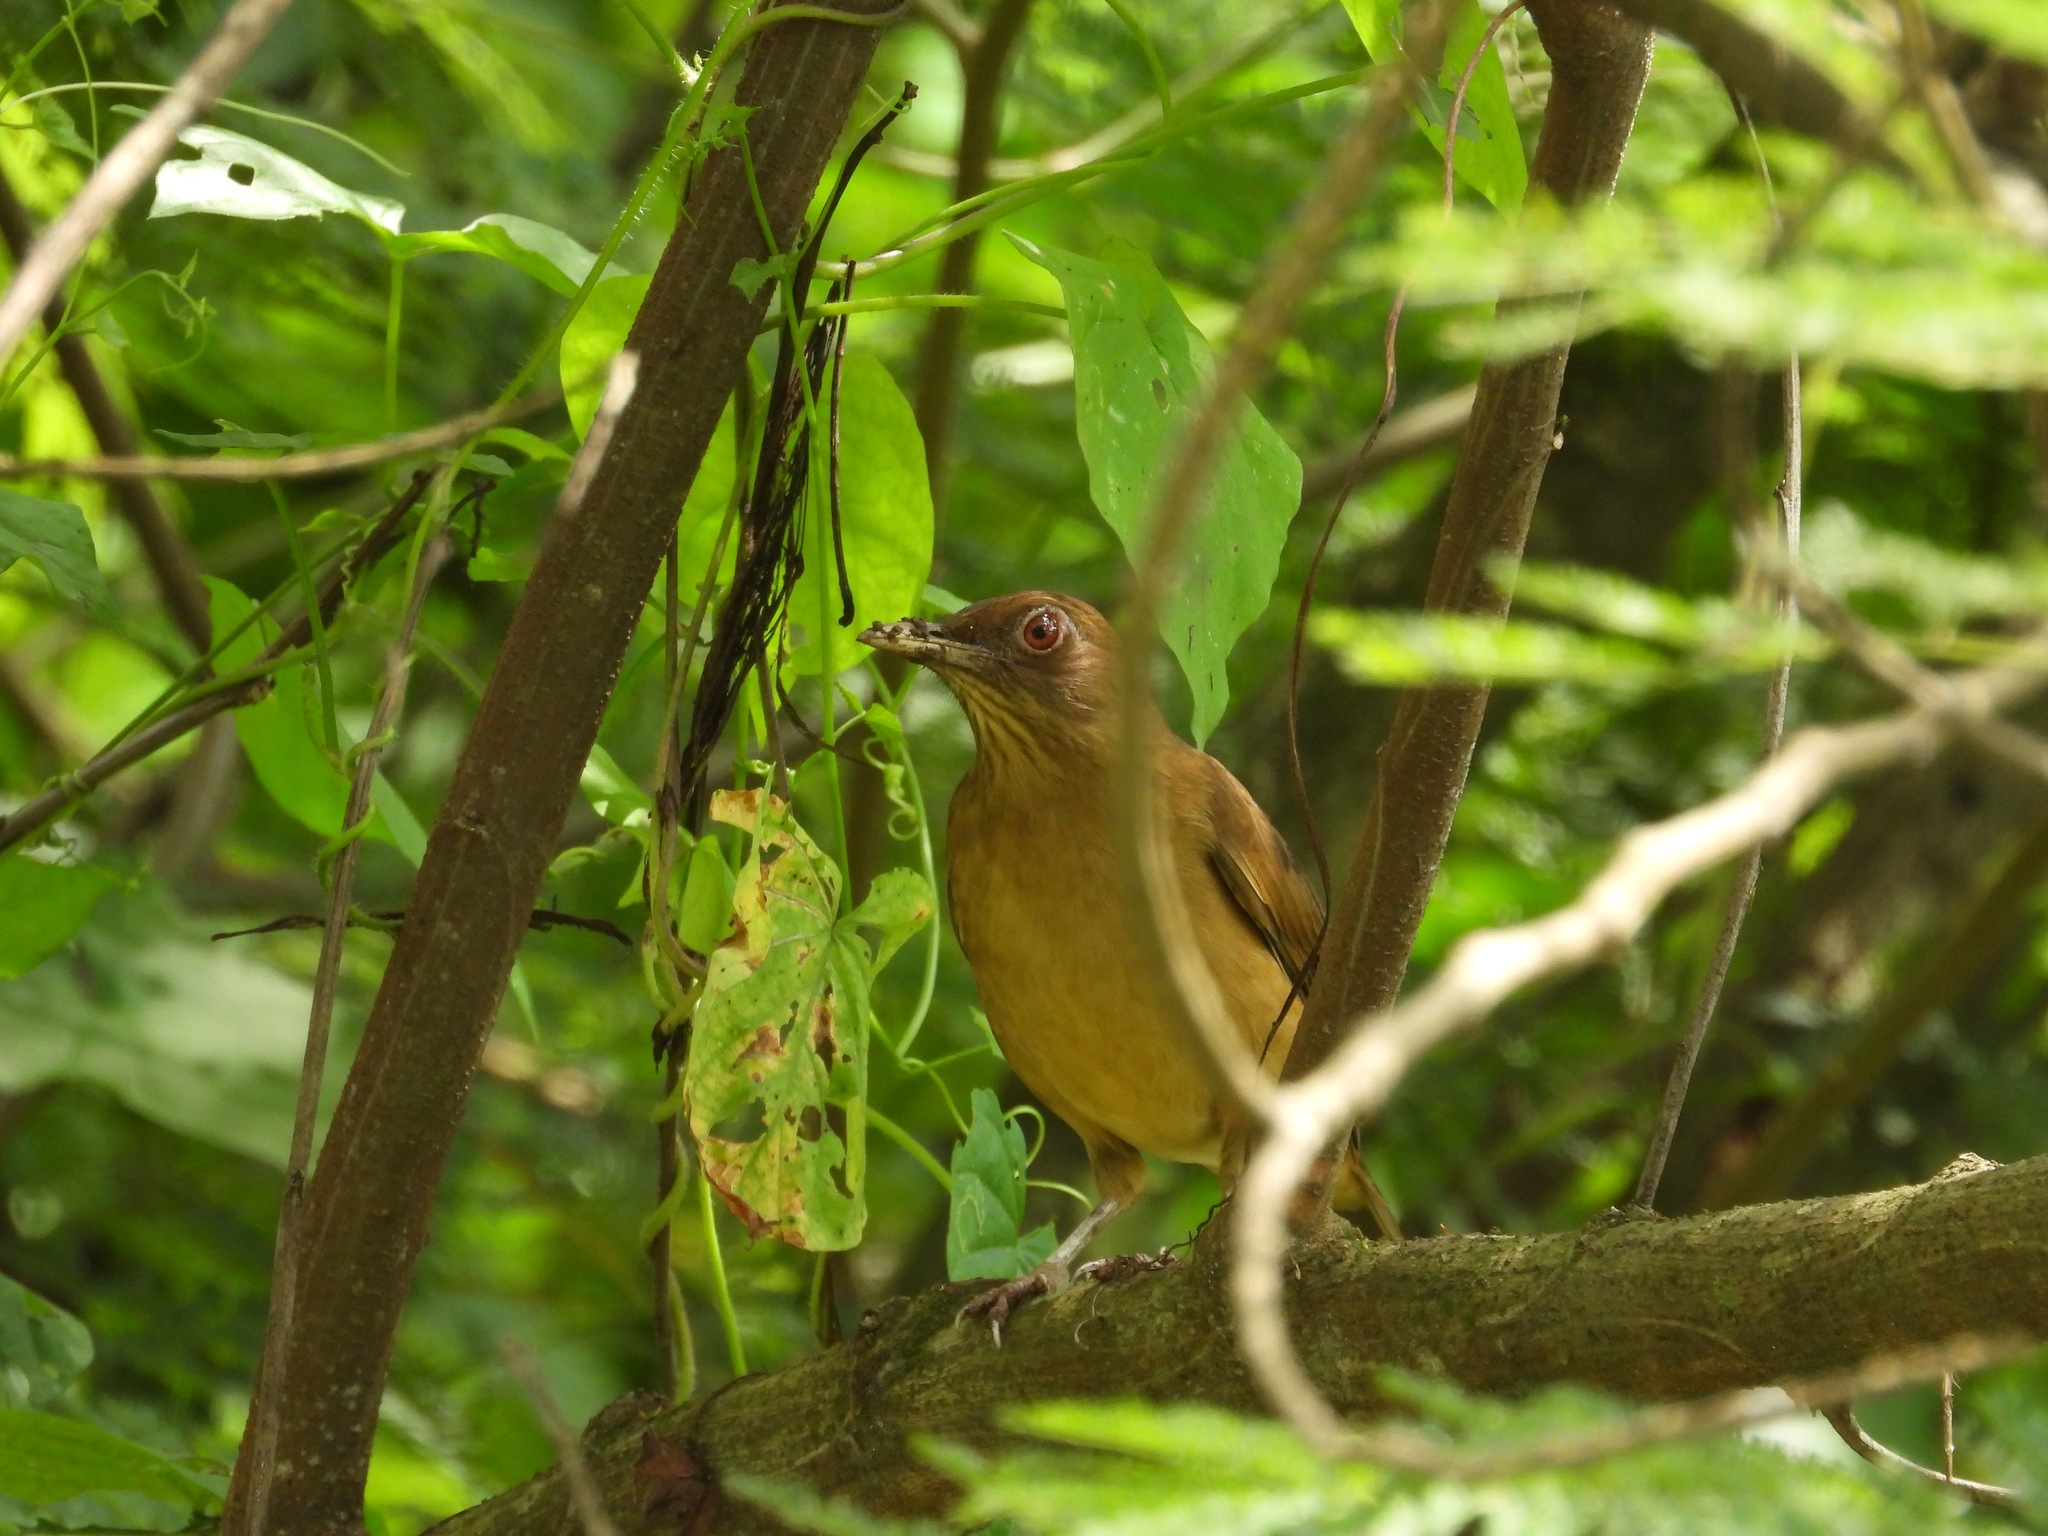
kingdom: Animalia
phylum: Chordata
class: Aves
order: Passeriformes
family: Turdidae
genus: Turdus
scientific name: Turdus grayi
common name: Clay-colored thrush
